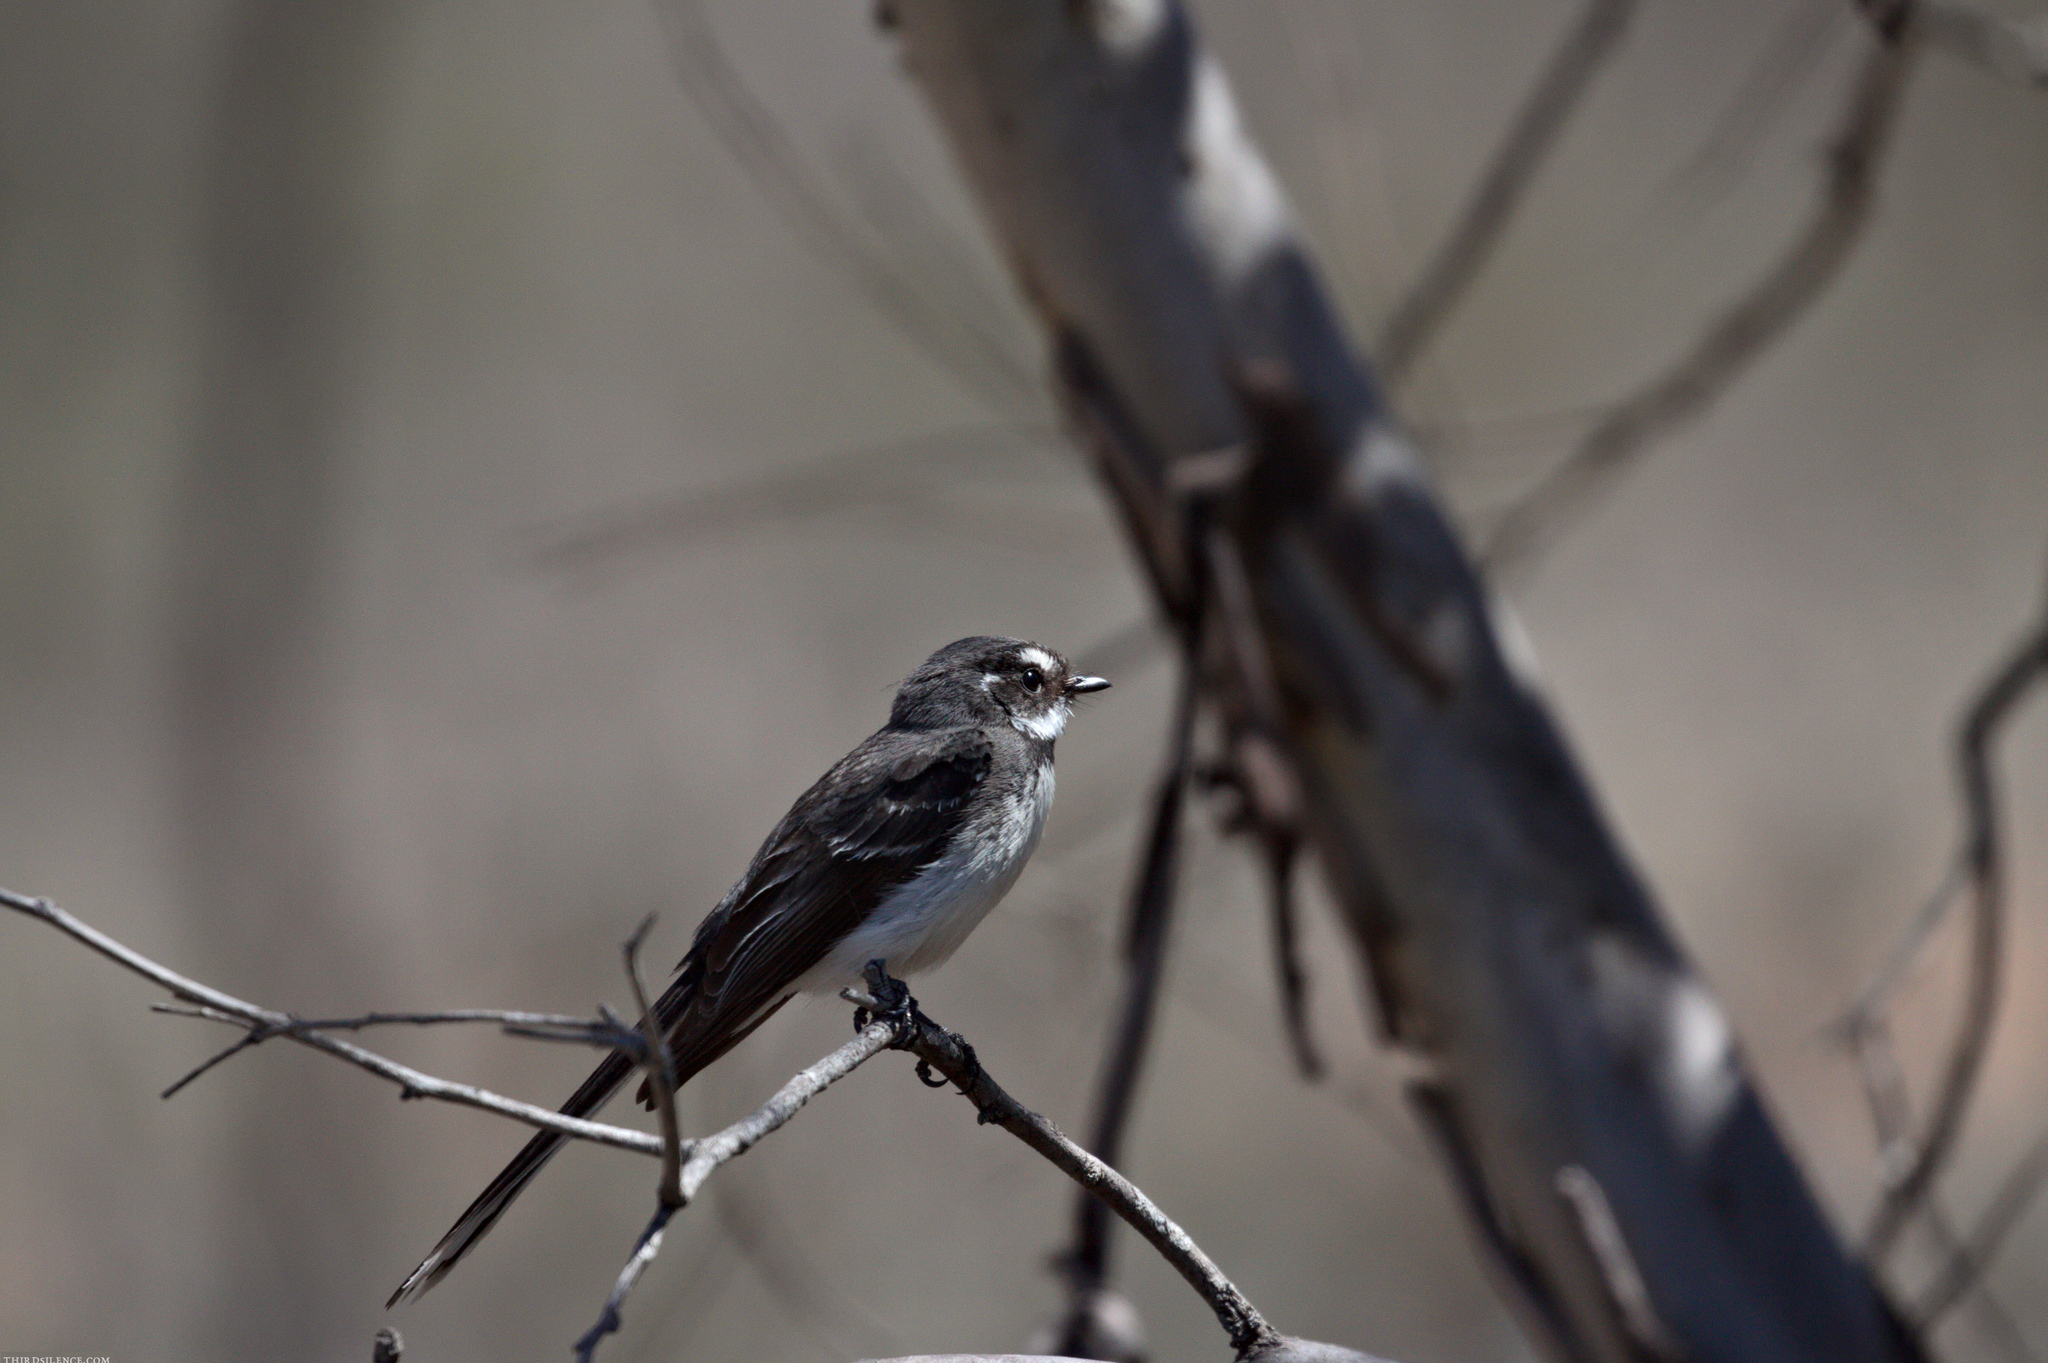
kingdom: Animalia
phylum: Chordata
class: Aves
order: Passeriformes
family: Rhipiduridae
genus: Rhipidura
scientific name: Rhipidura albiscapa
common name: Grey fantail
